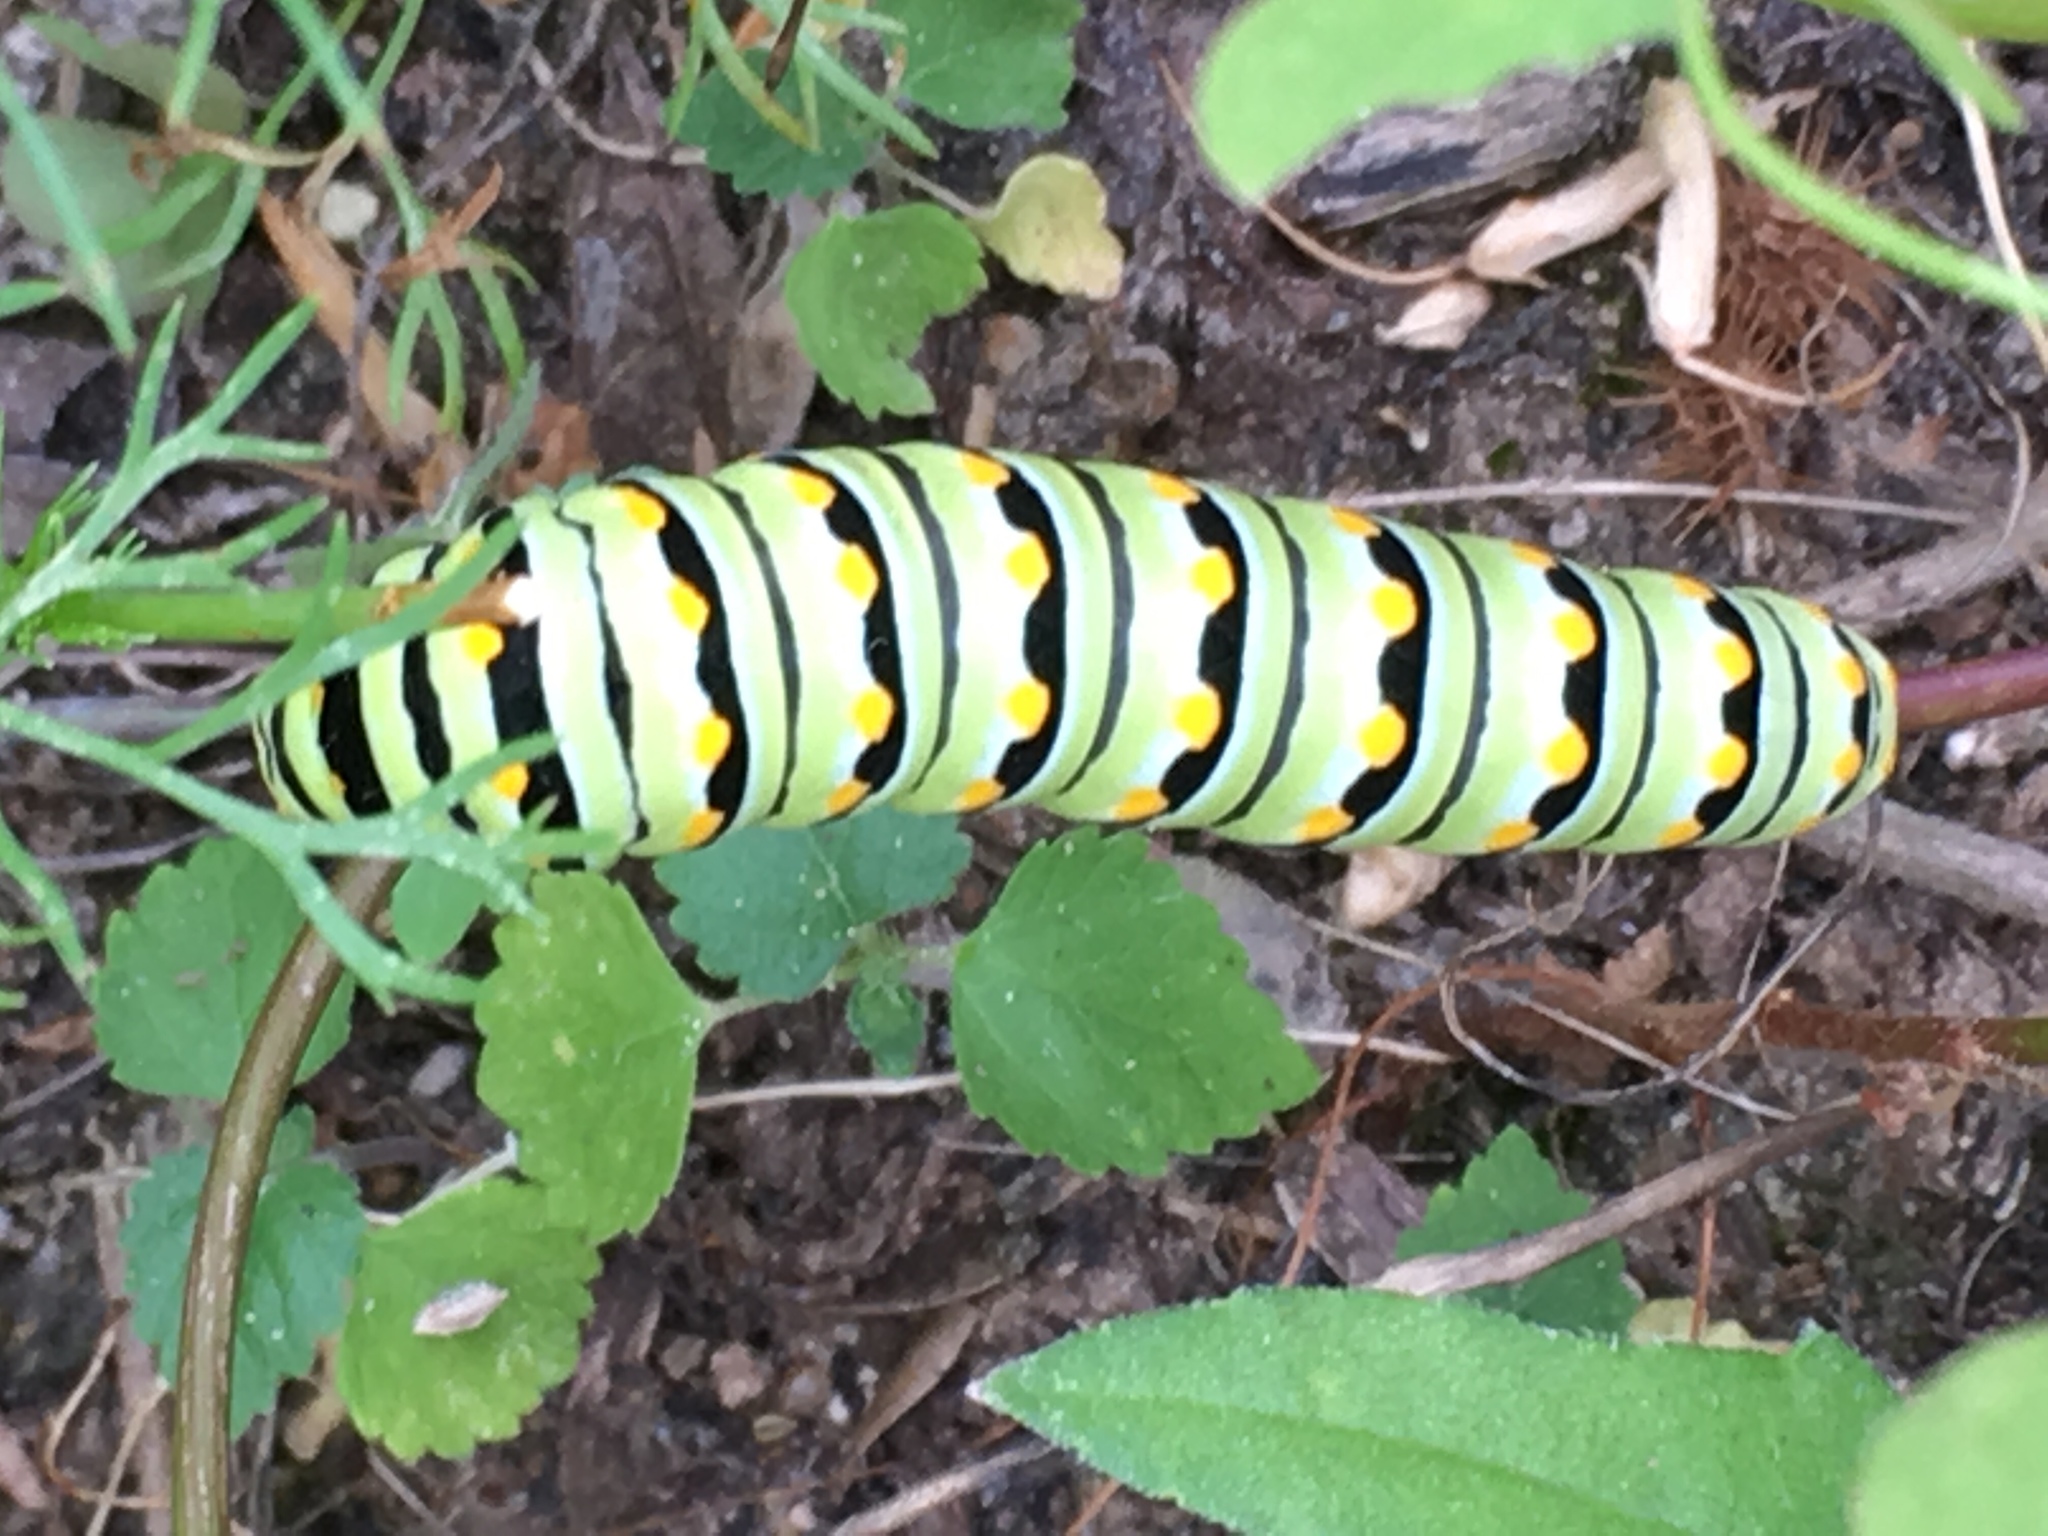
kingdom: Animalia
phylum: Arthropoda
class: Insecta
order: Lepidoptera
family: Papilionidae
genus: Papilio
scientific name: Papilio polyxenes
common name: Black swallowtail
